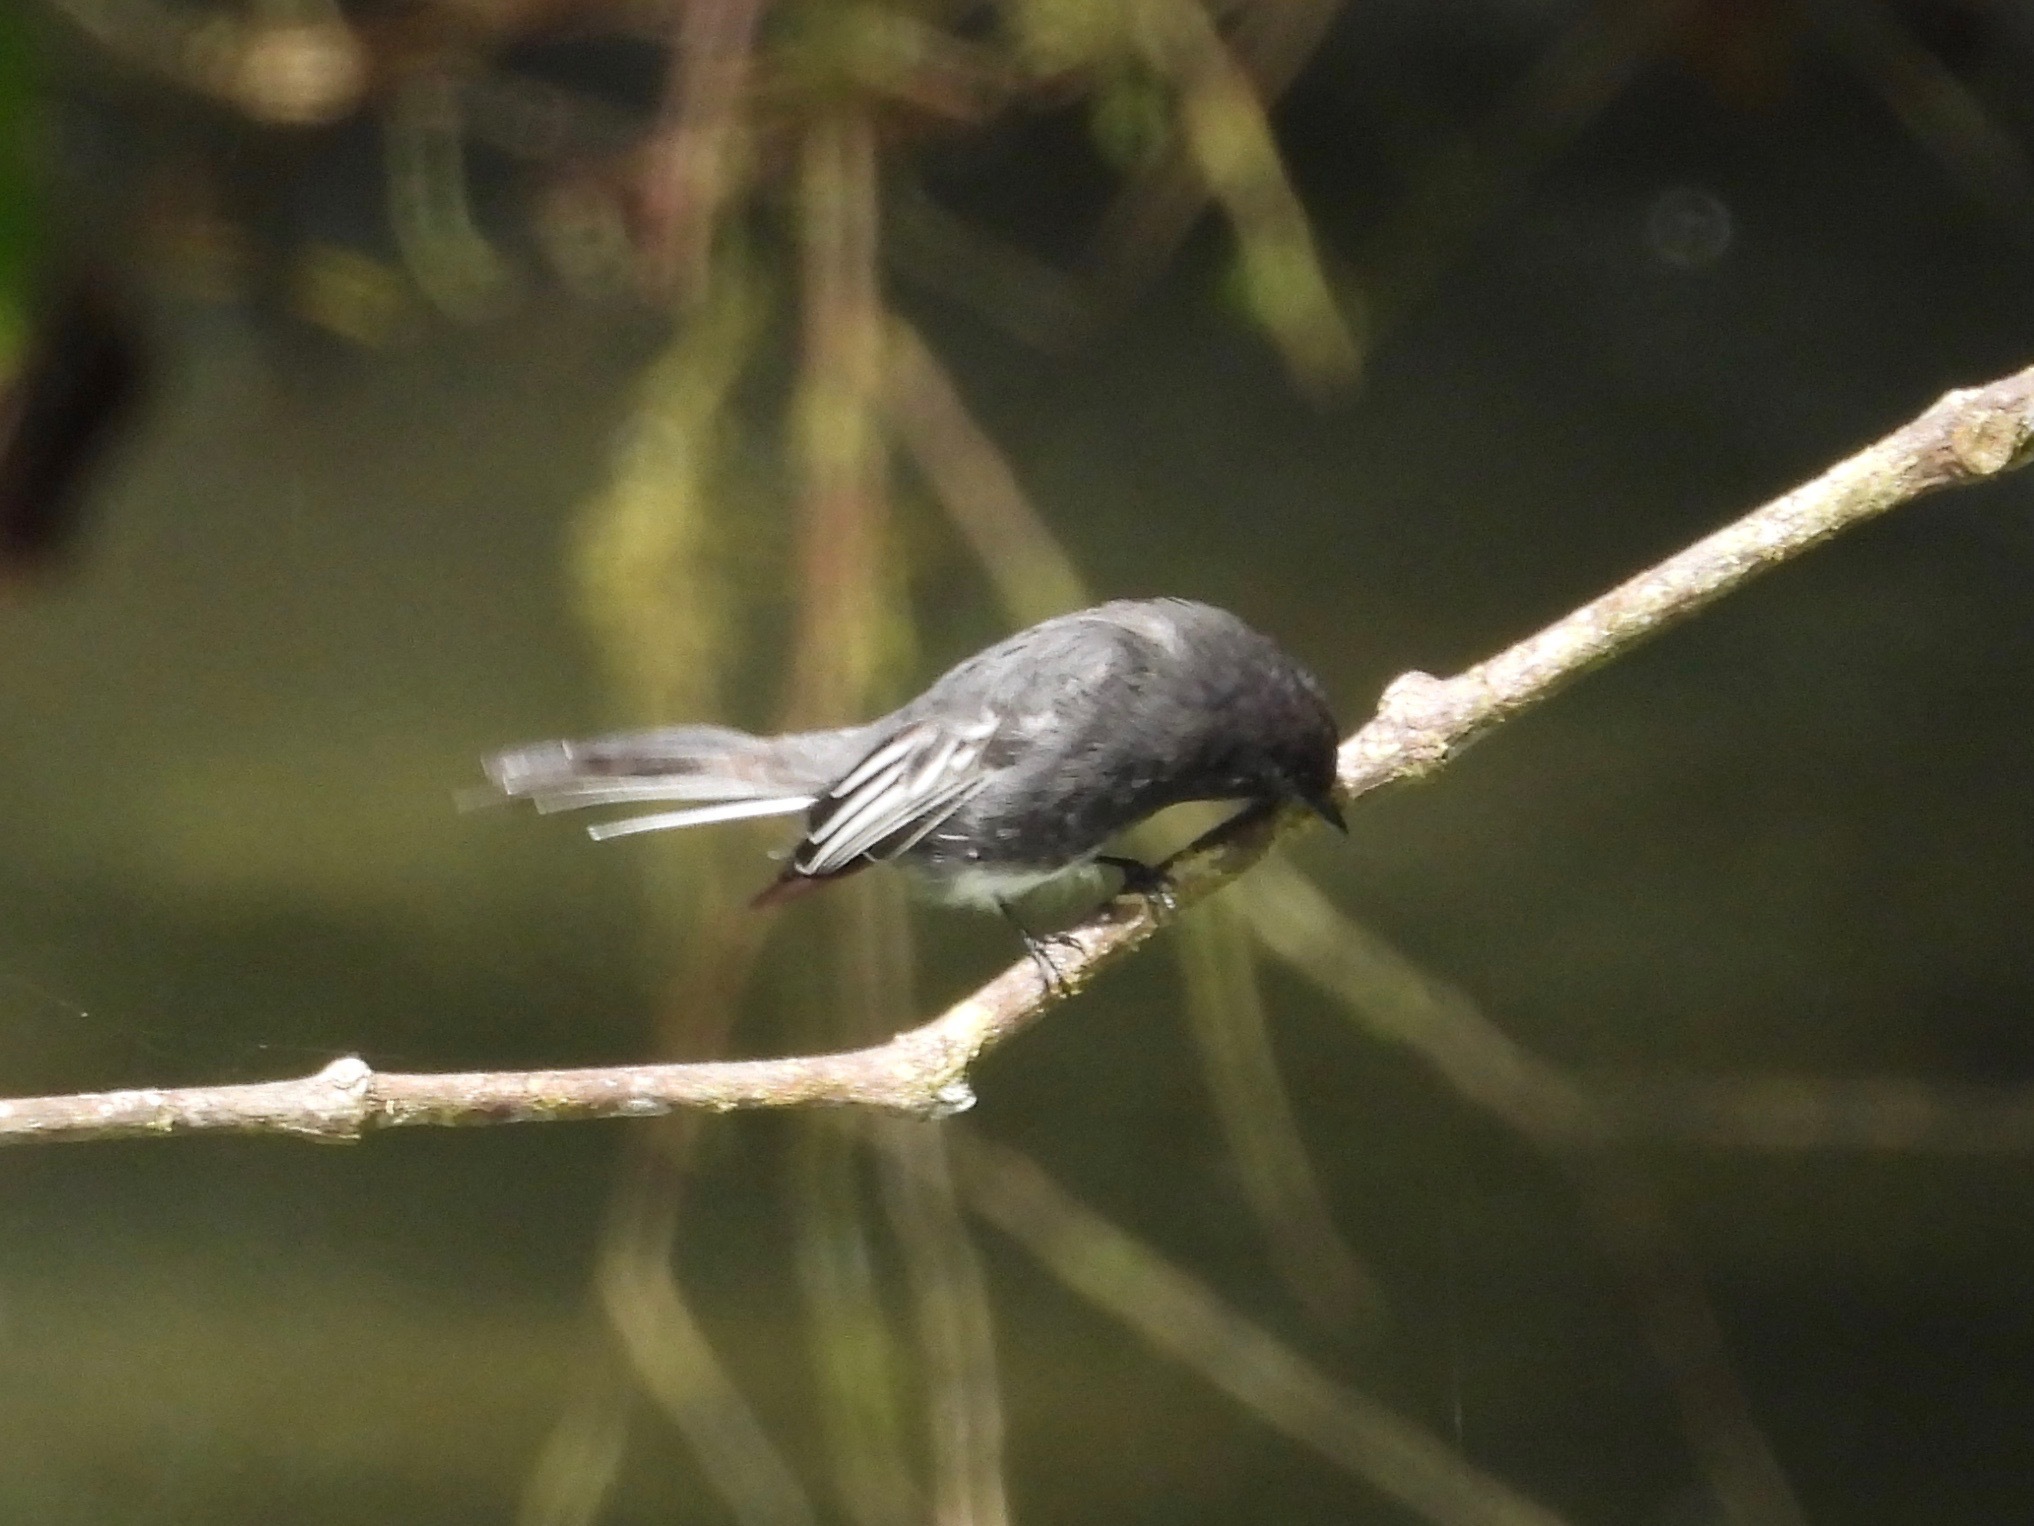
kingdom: Animalia
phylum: Chordata
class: Aves
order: Passeriformes
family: Tyrannidae
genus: Sayornis
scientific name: Sayornis nigricans
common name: Black phoebe
